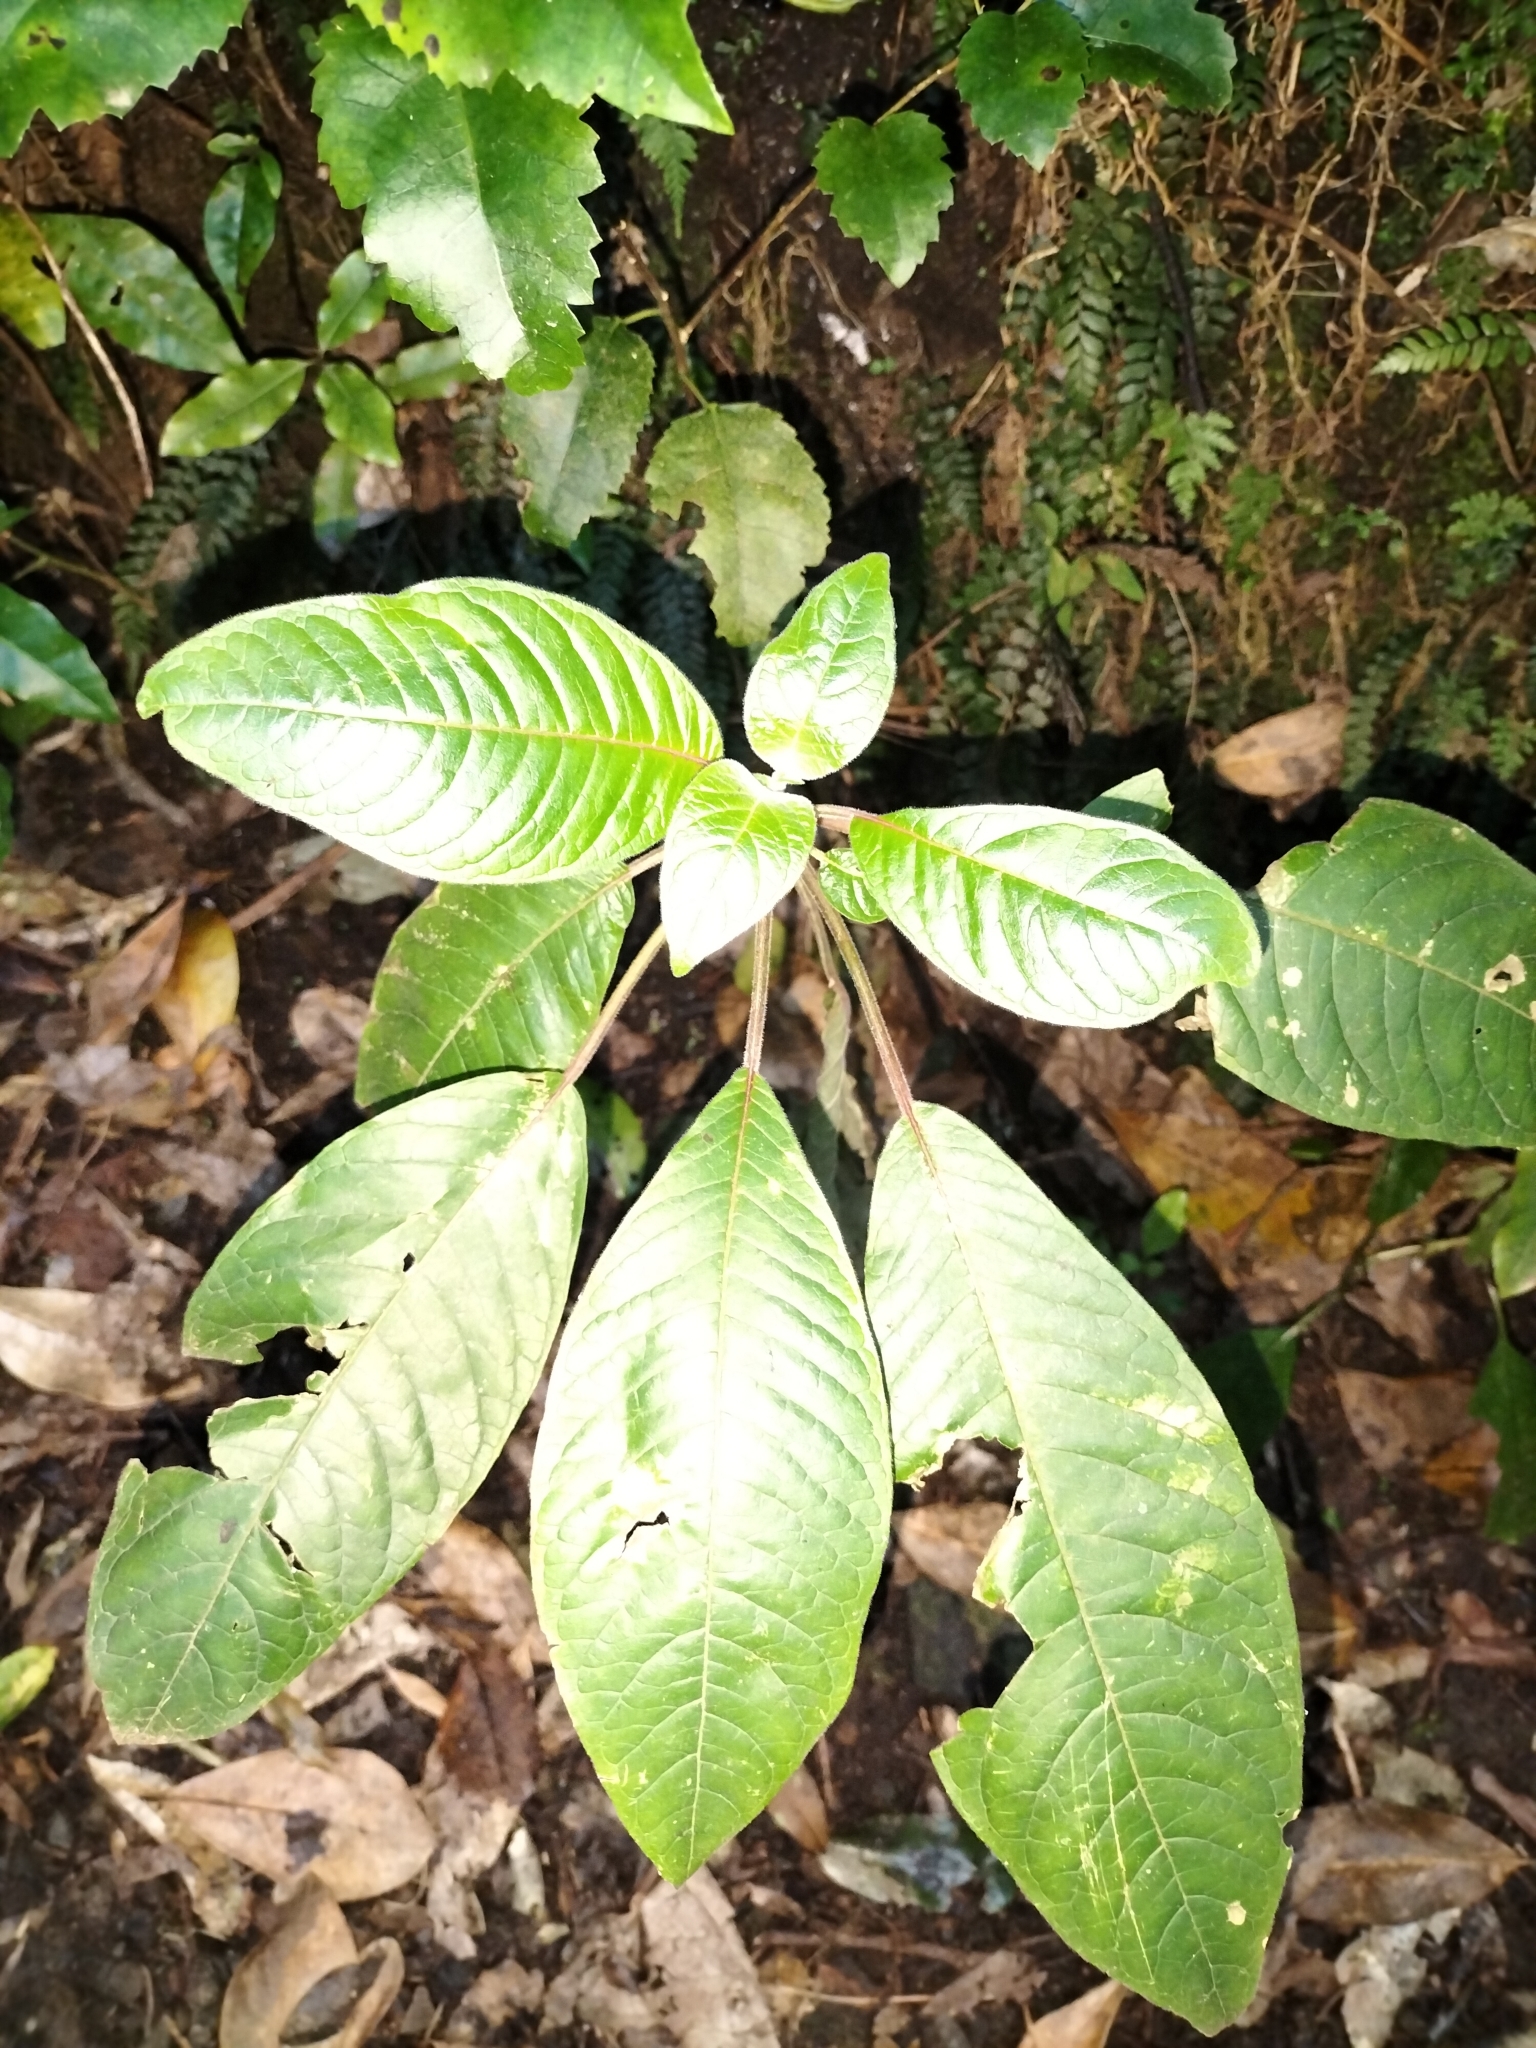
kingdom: Plantae
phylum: Tracheophyta
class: Magnoliopsida
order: Myrtales
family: Onagraceae
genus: Fuchsia
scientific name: Fuchsia boliviana
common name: Bolivian fuchsia
